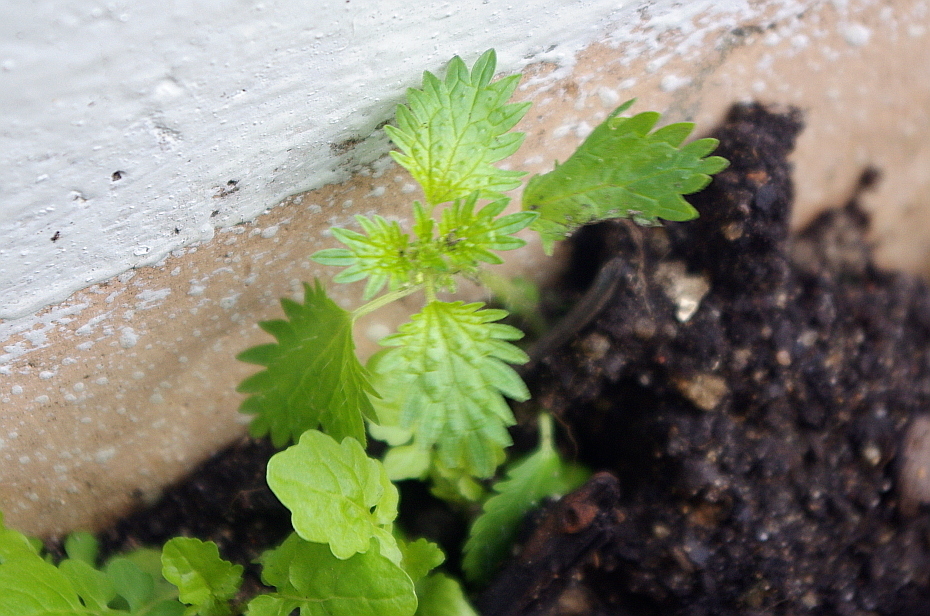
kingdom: Plantae
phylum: Tracheophyta
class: Magnoliopsida
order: Rosales
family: Urticaceae
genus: Urtica
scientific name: Urtica urens
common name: Dwarf nettle
